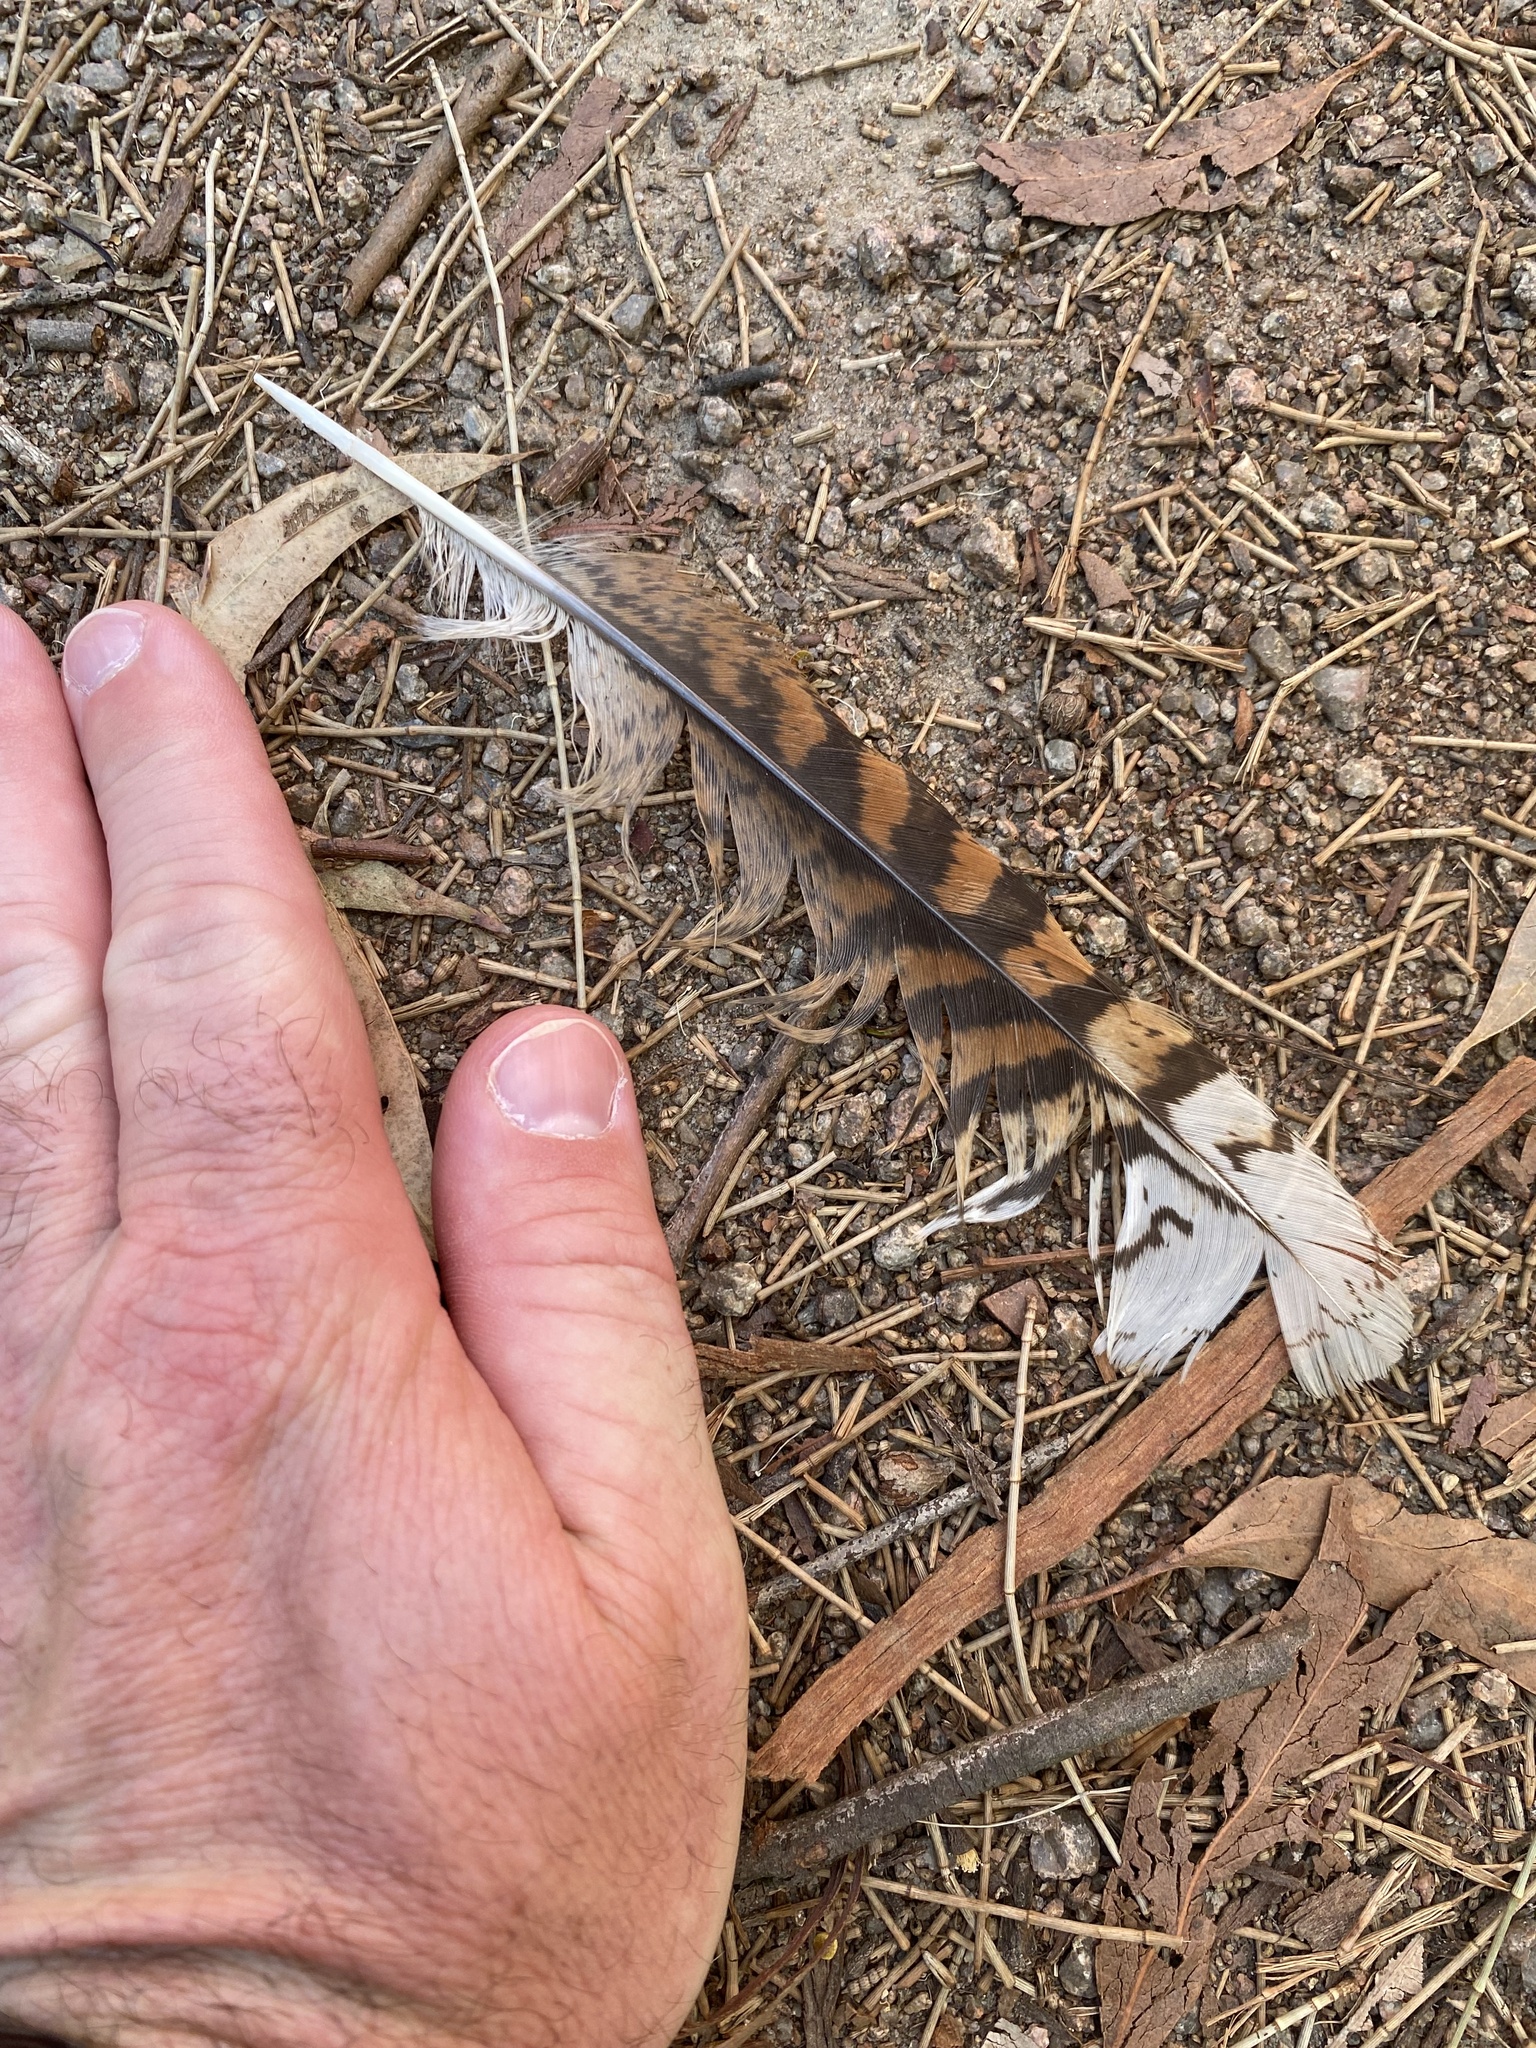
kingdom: Animalia
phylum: Chordata
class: Aves
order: Coraciiformes
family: Alcedinidae
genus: Dacelo
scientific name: Dacelo novaeguineae
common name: Laughing kookaburra
